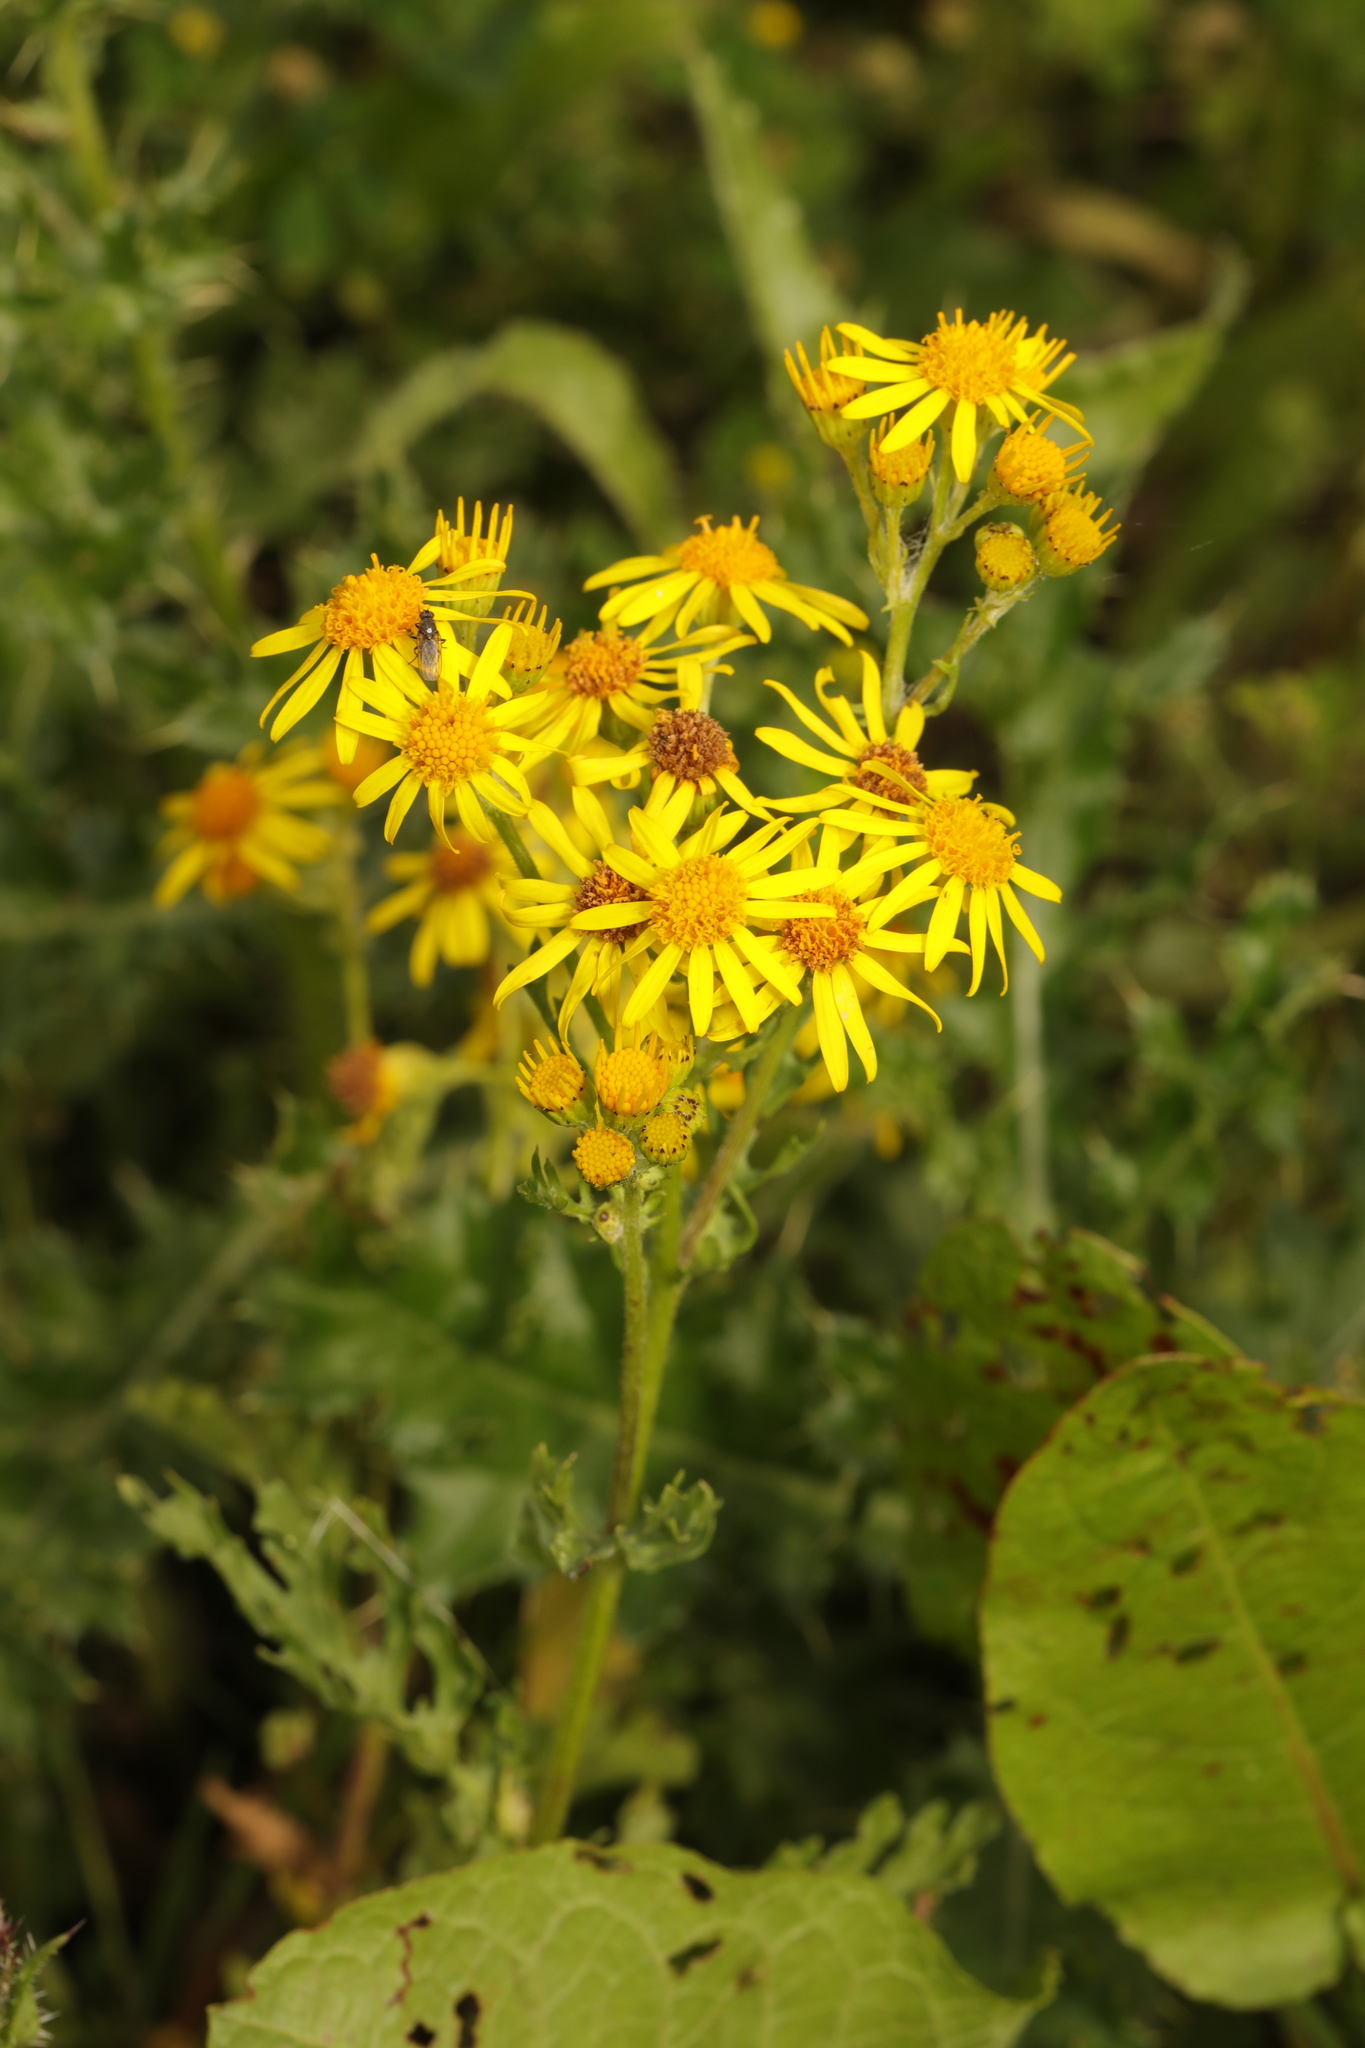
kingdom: Plantae
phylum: Tracheophyta
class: Magnoliopsida
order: Asterales
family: Asteraceae
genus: Jacobaea
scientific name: Jacobaea vulgaris
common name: Stinking willie
